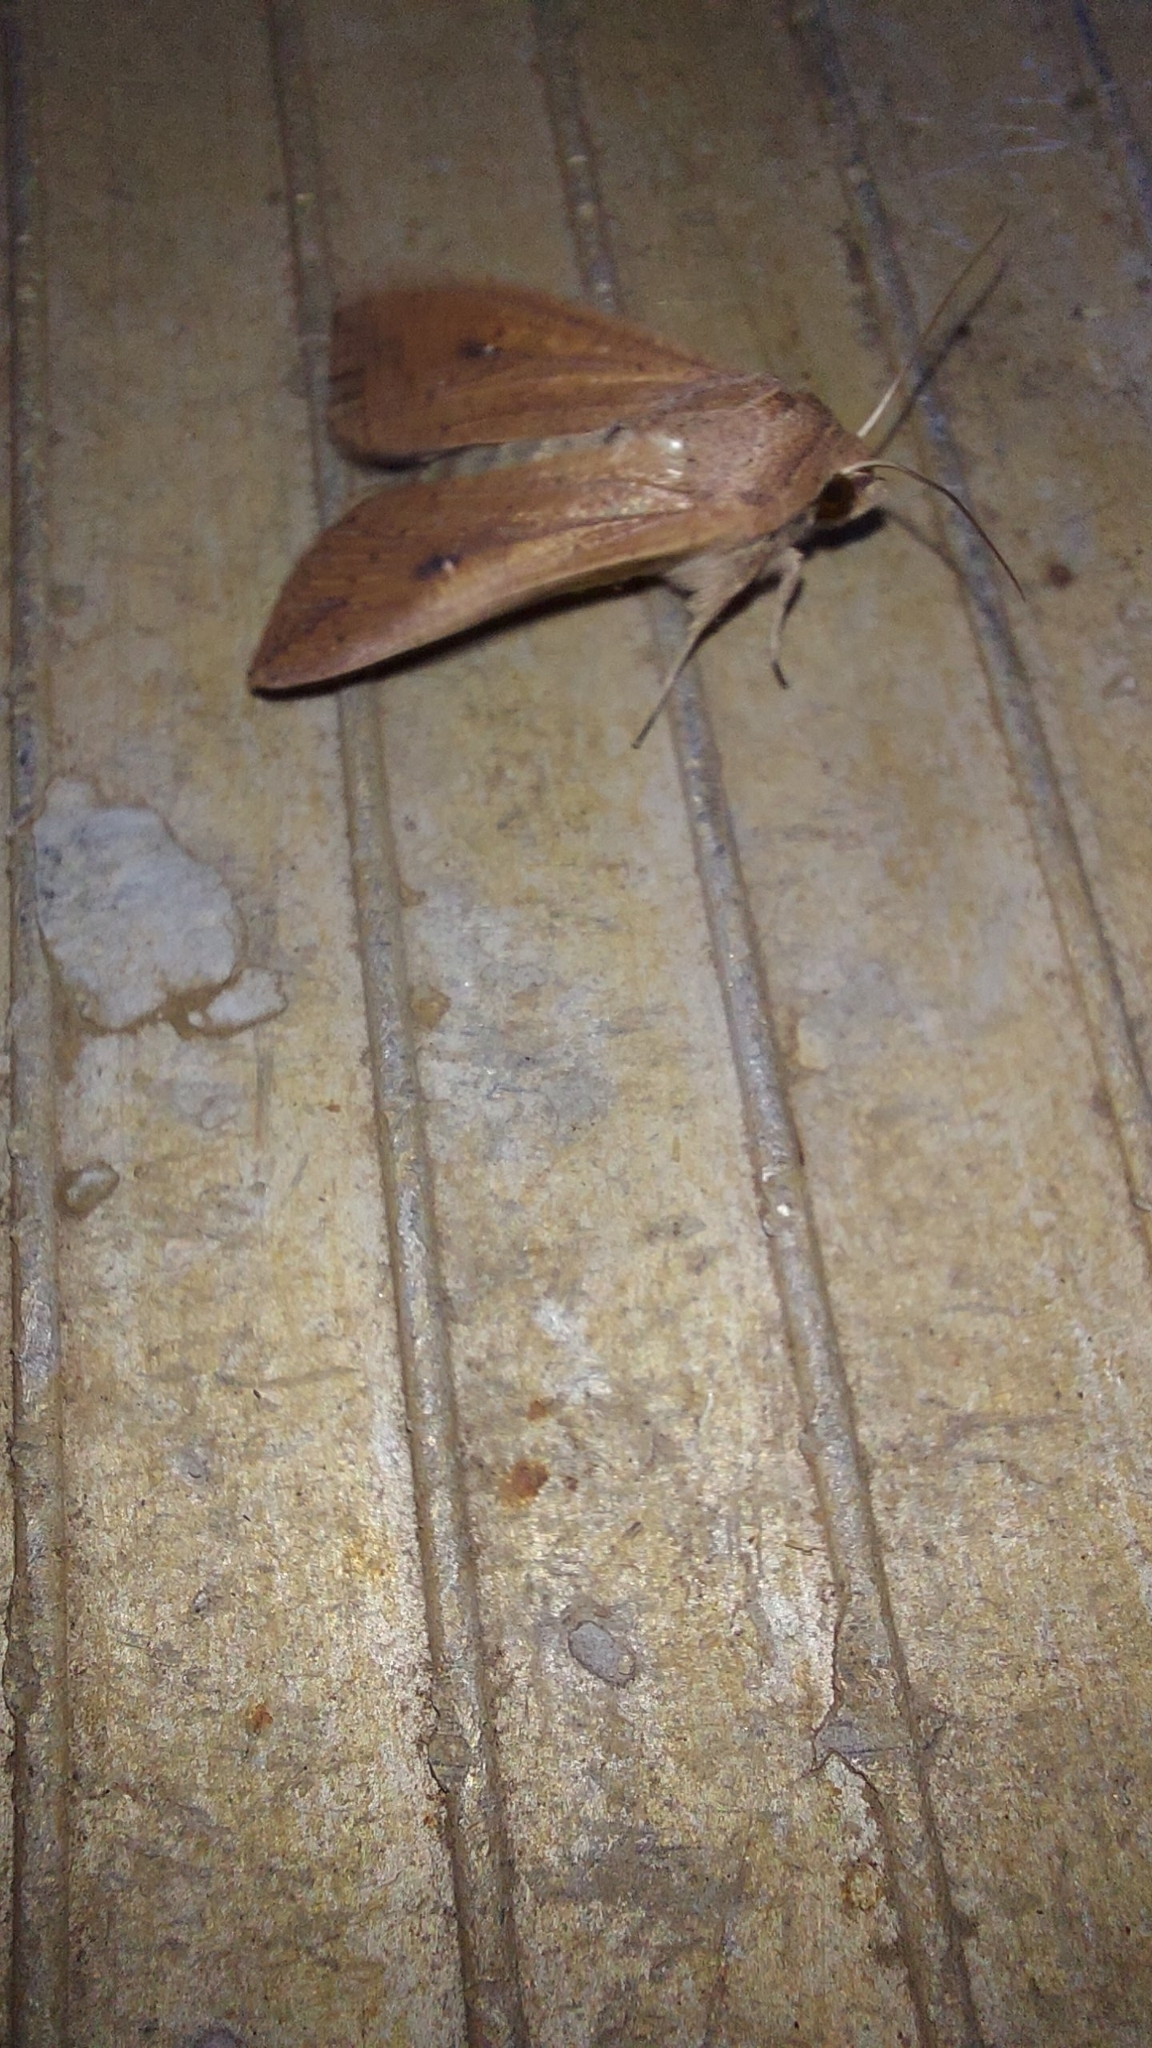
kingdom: Animalia
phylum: Arthropoda
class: Insecta
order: Lepidoptera
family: Noctuidae
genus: Mythimna
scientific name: Mythimna convecta
